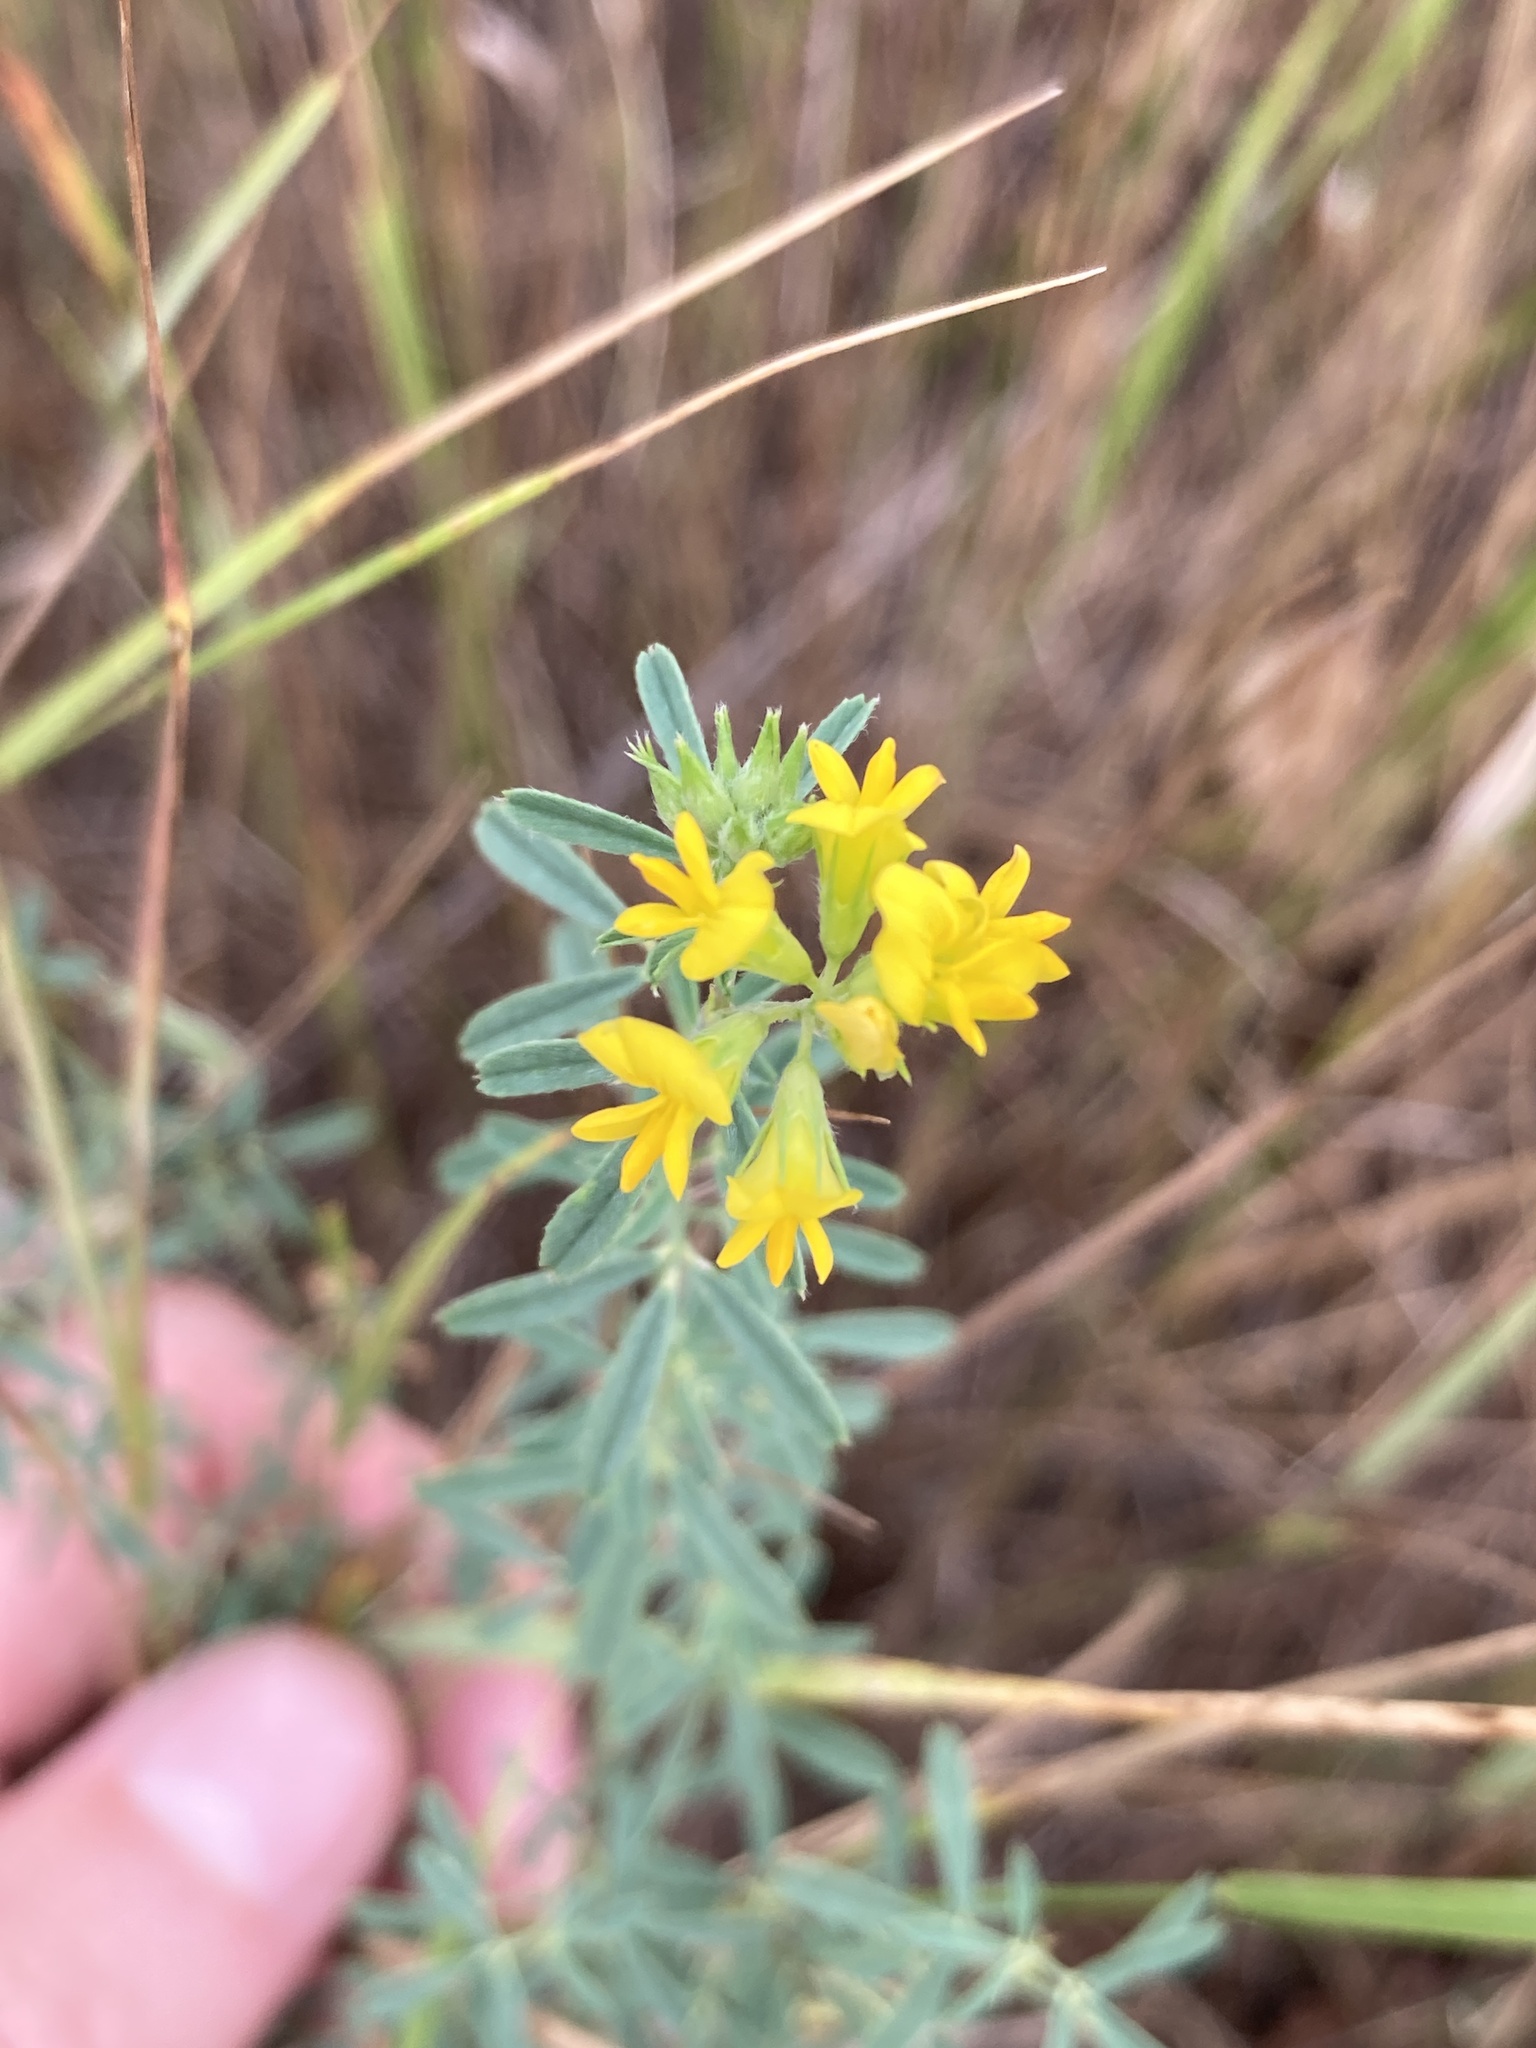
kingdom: Plantae
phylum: Tracheophyta
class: Magnoliopsida
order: Fabales
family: Fabaceae
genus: Medicago
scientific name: Medicago falcata
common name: Sickle medick
